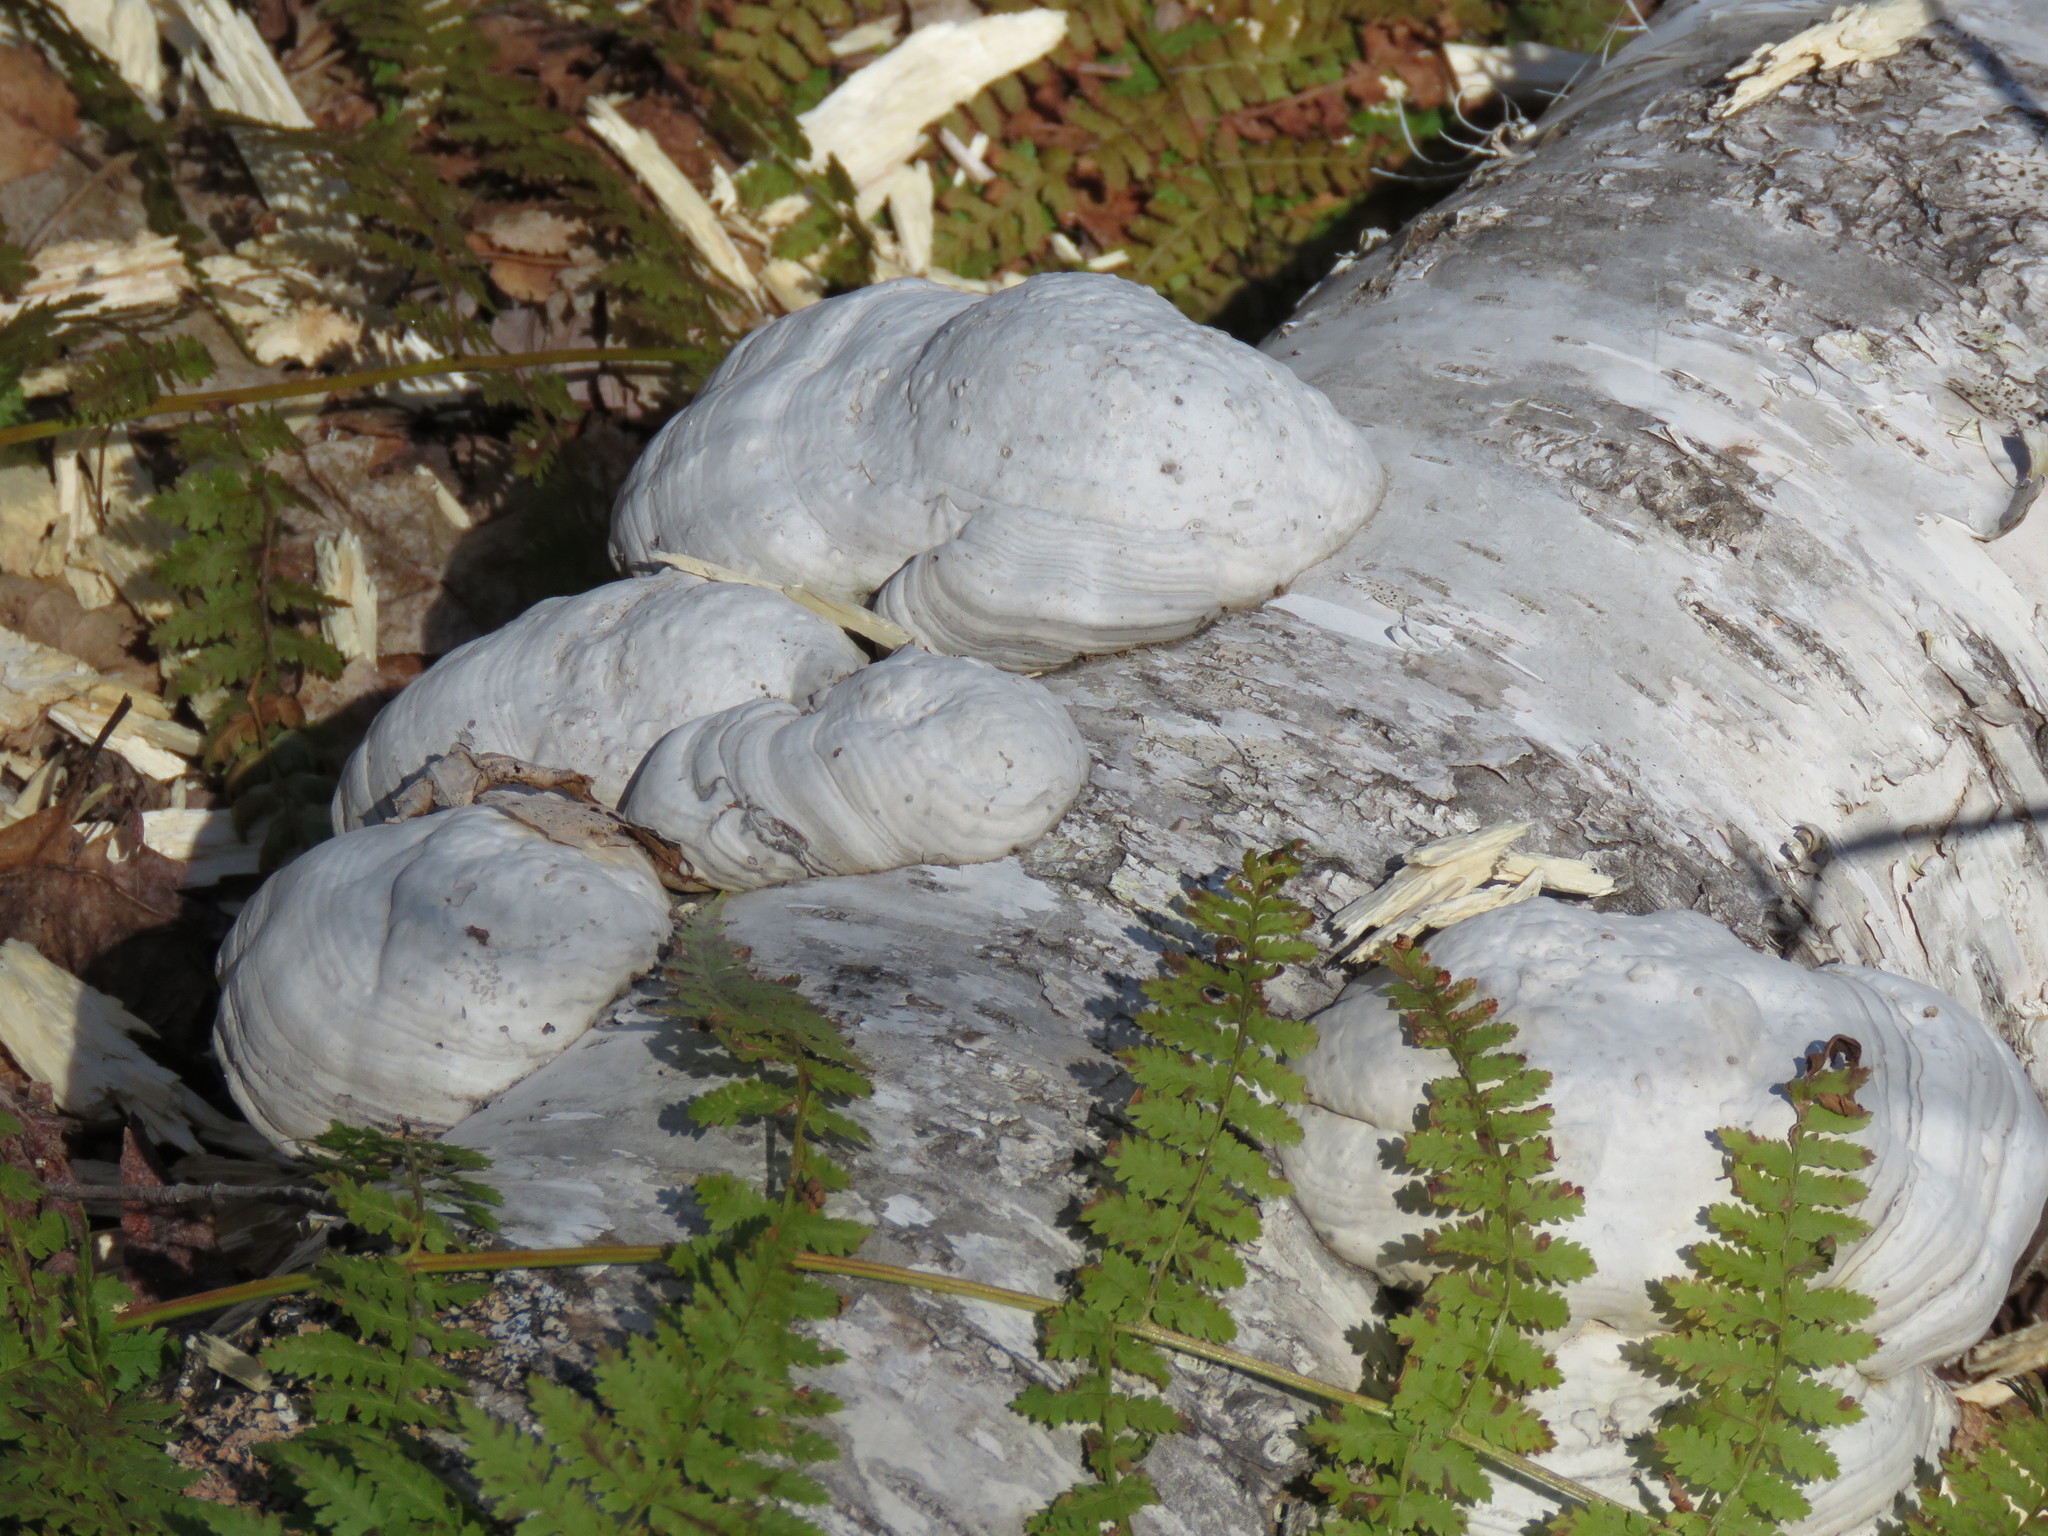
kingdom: Fungi
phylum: Basidiomycota
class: Agaricomycetes
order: Polyporales
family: Polyporaceae
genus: Fomes
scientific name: Fomes fomentarius
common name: Hoof fungus
